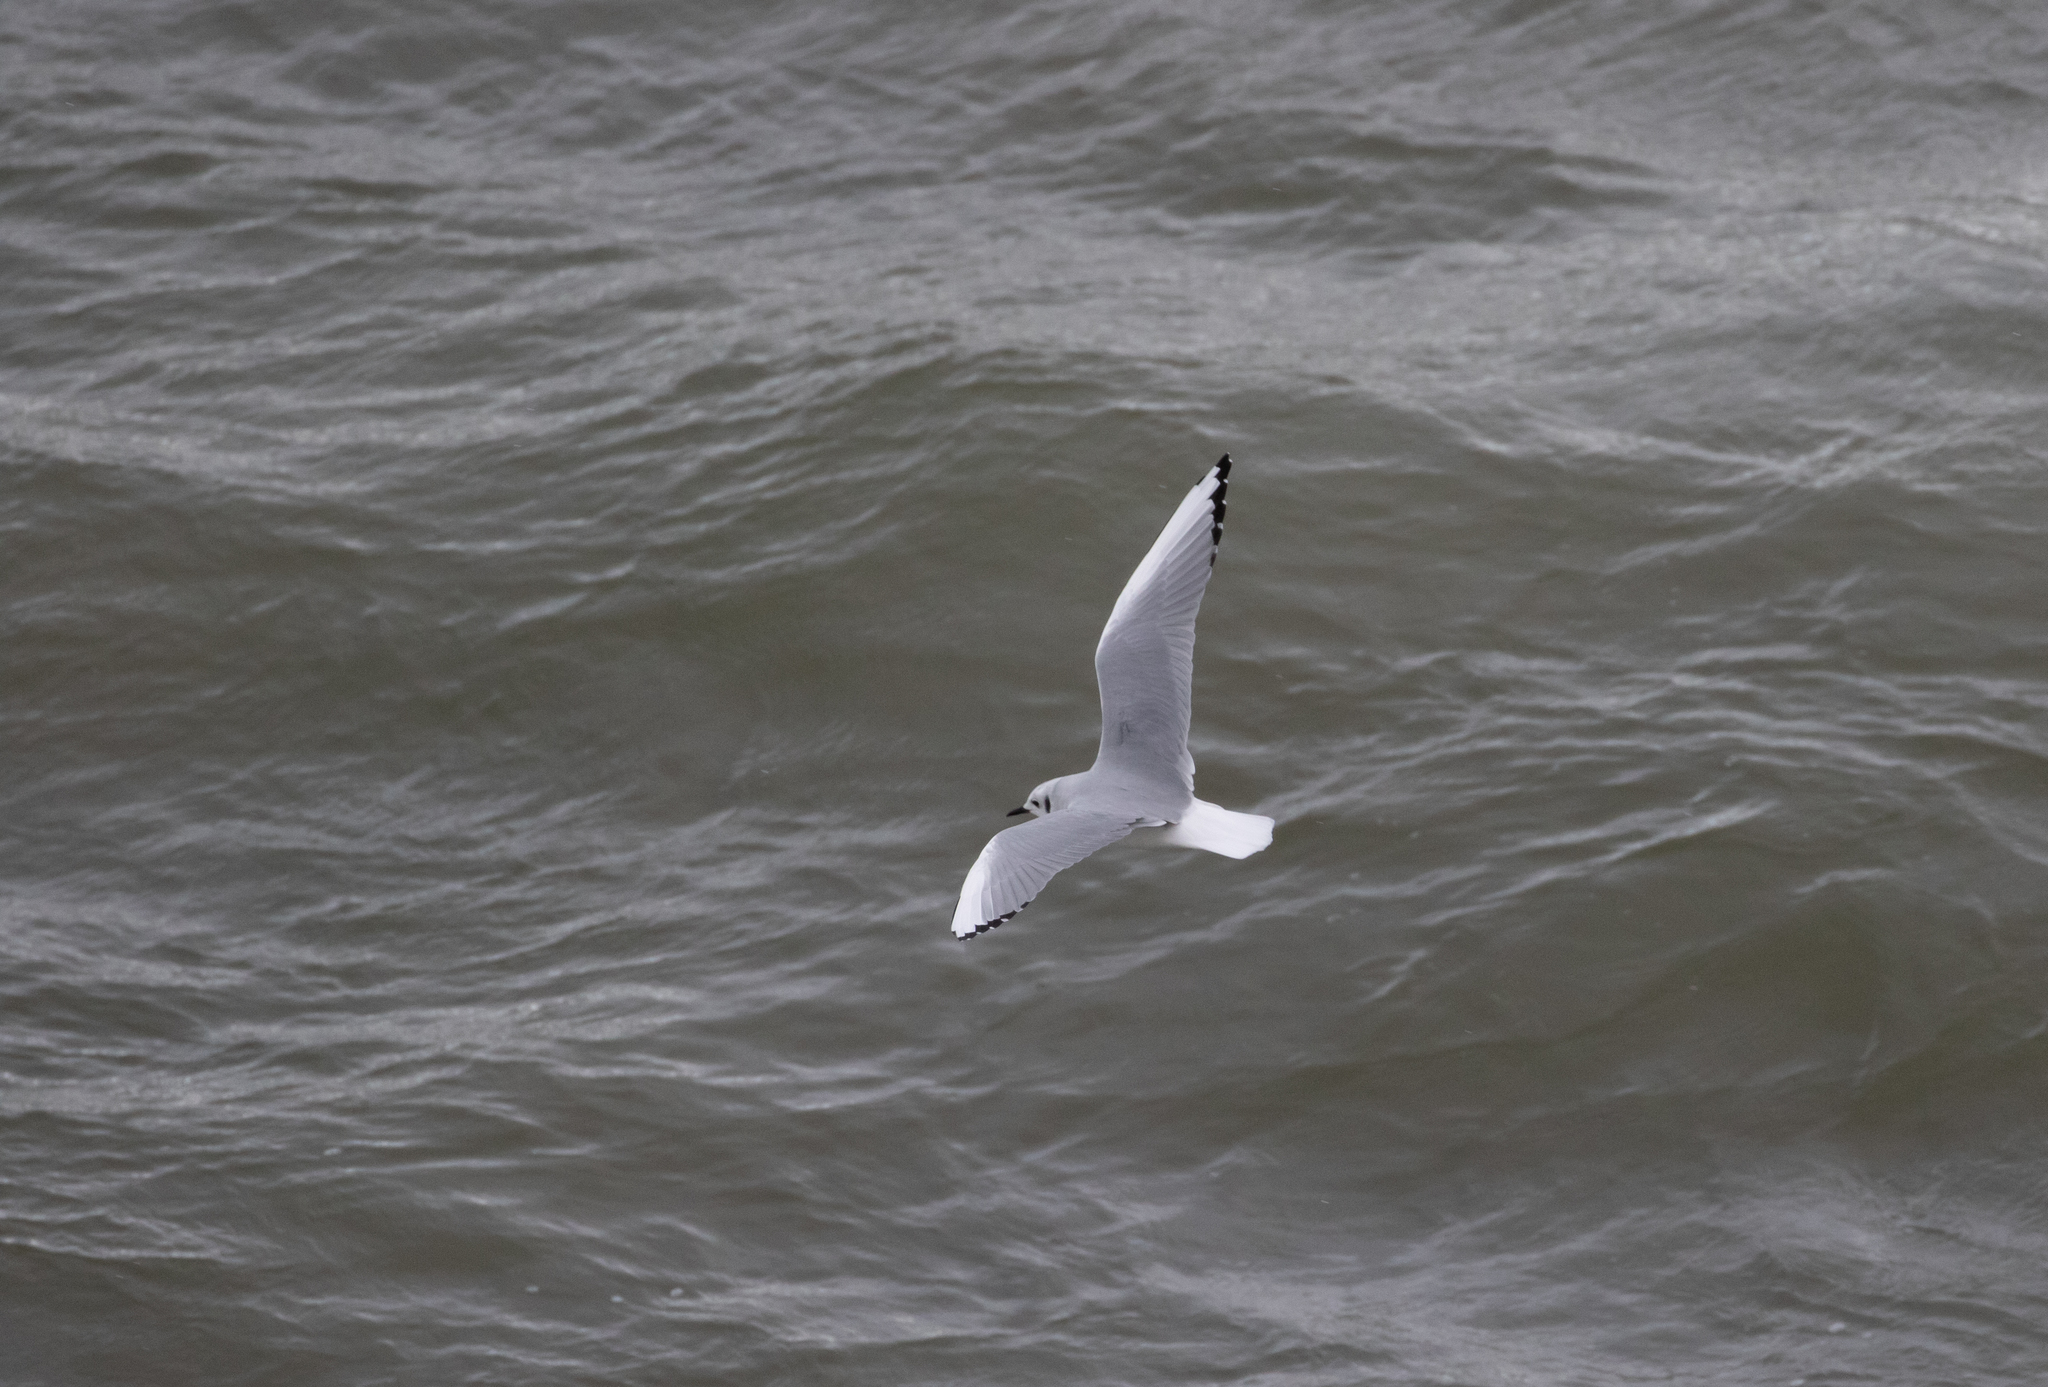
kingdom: Animalia
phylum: Chordata
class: Aves
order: Charadriiformes
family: Laridae
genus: Chroicocephalus
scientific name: Chroicocephalus philadelphia
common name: Bonaparte's gull
